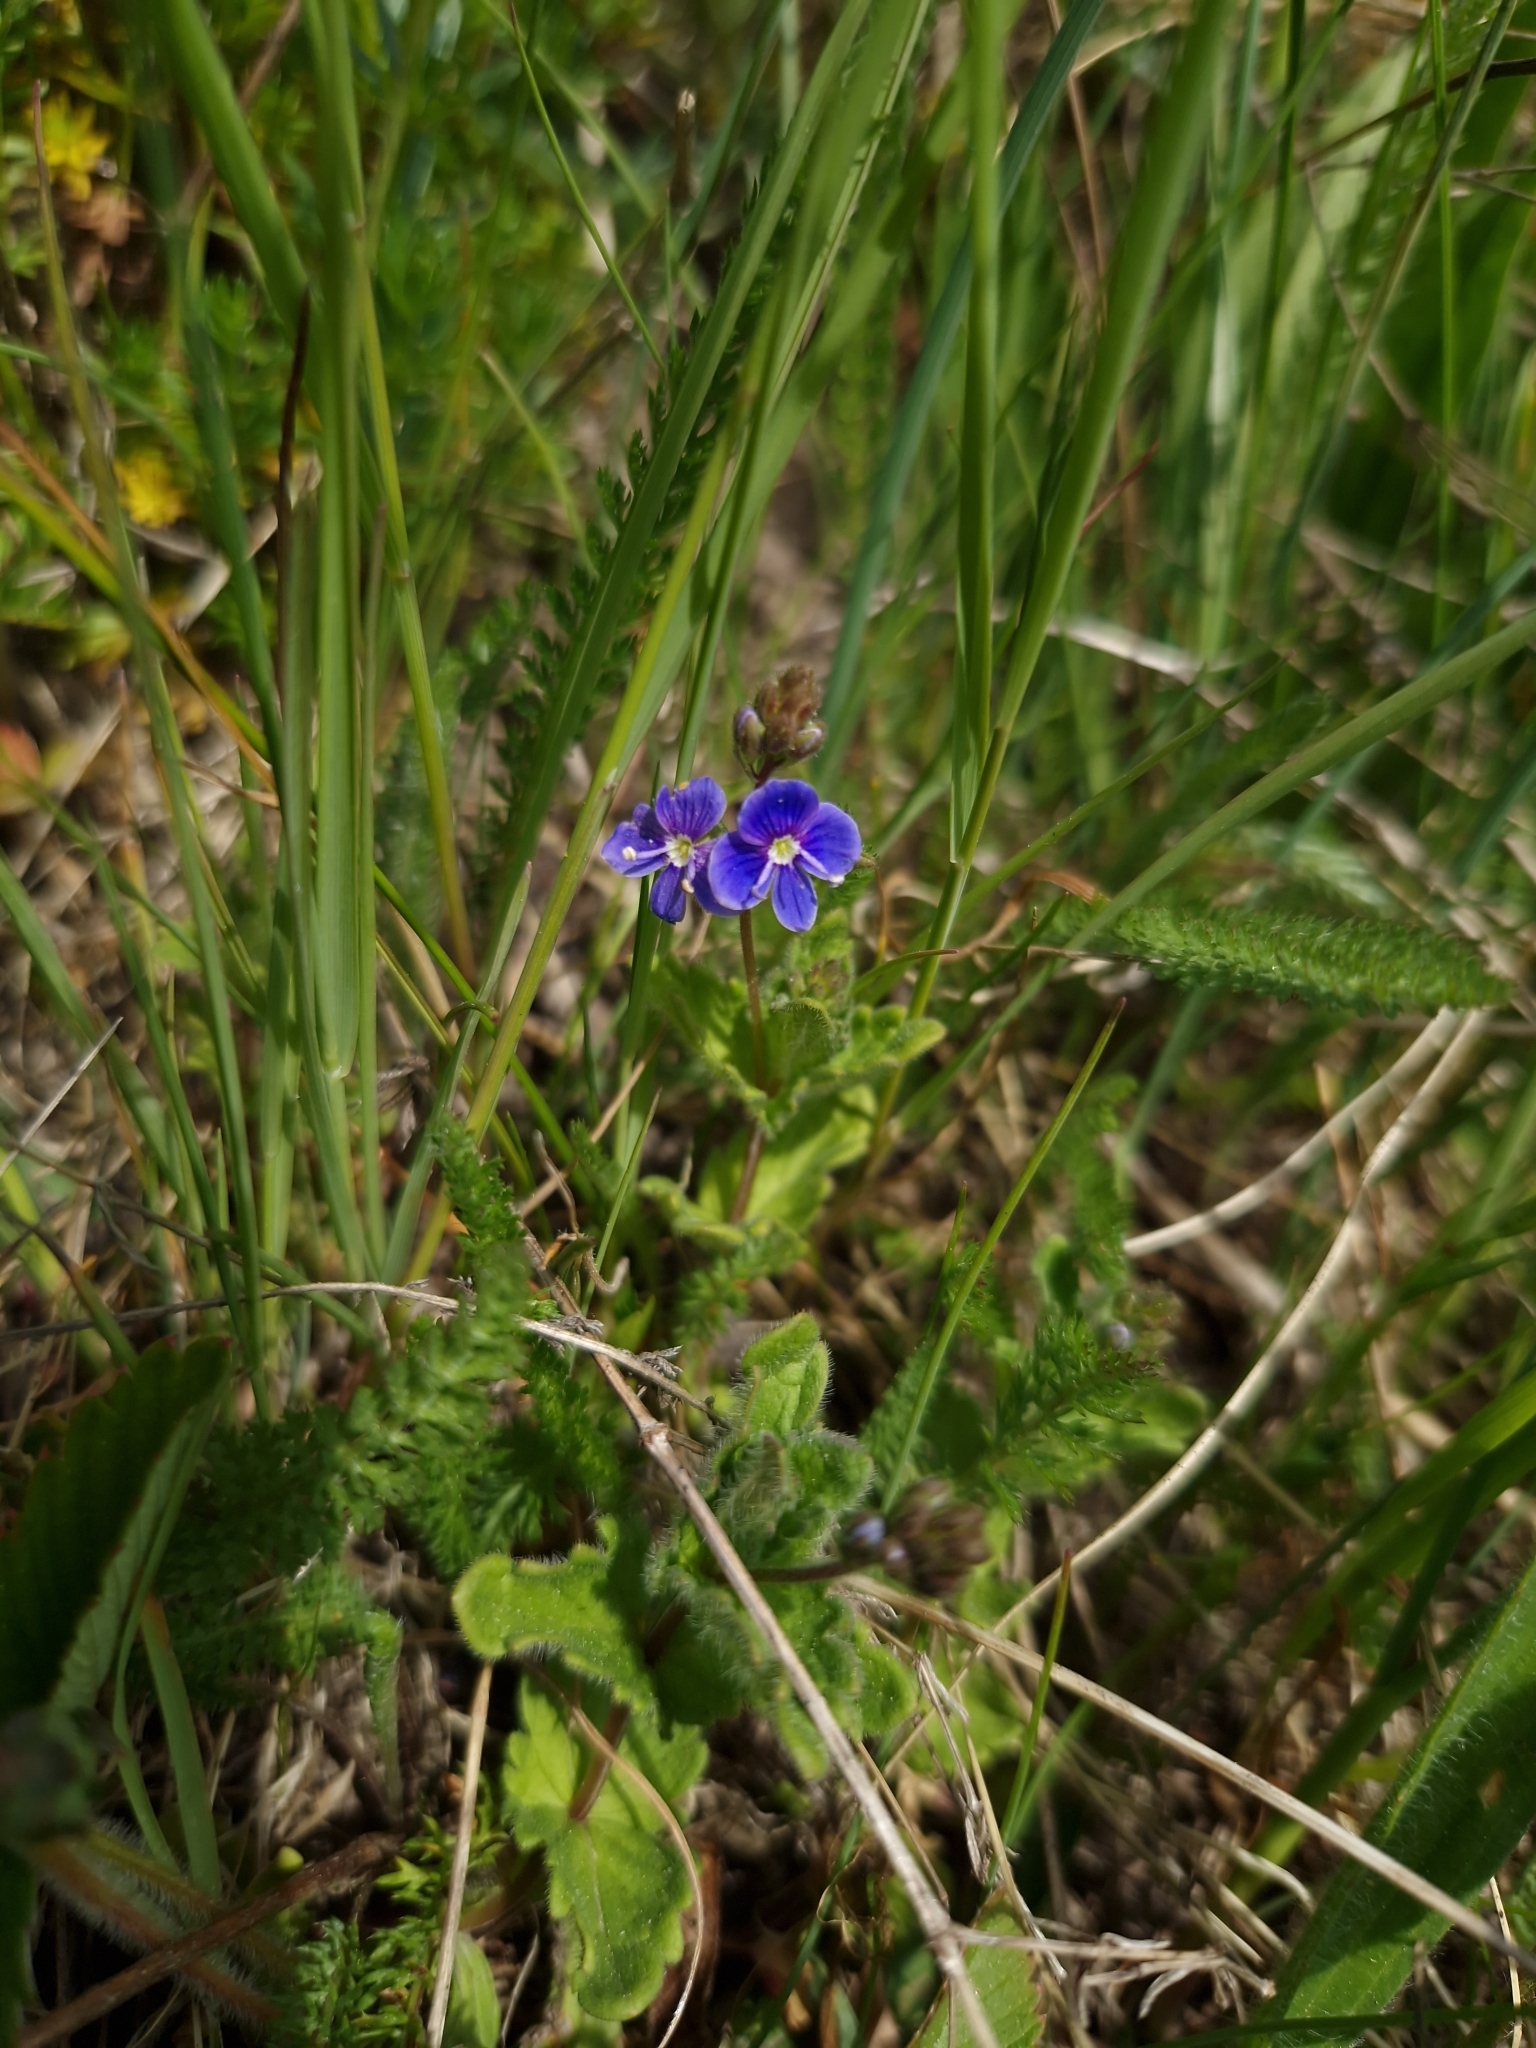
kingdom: Plantae
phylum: Tracheophyta
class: Magnoliopsida
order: Lamiales
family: Plantaginaceae
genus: Veronica
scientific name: Veronica chamaedrys
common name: Germander speedwell
